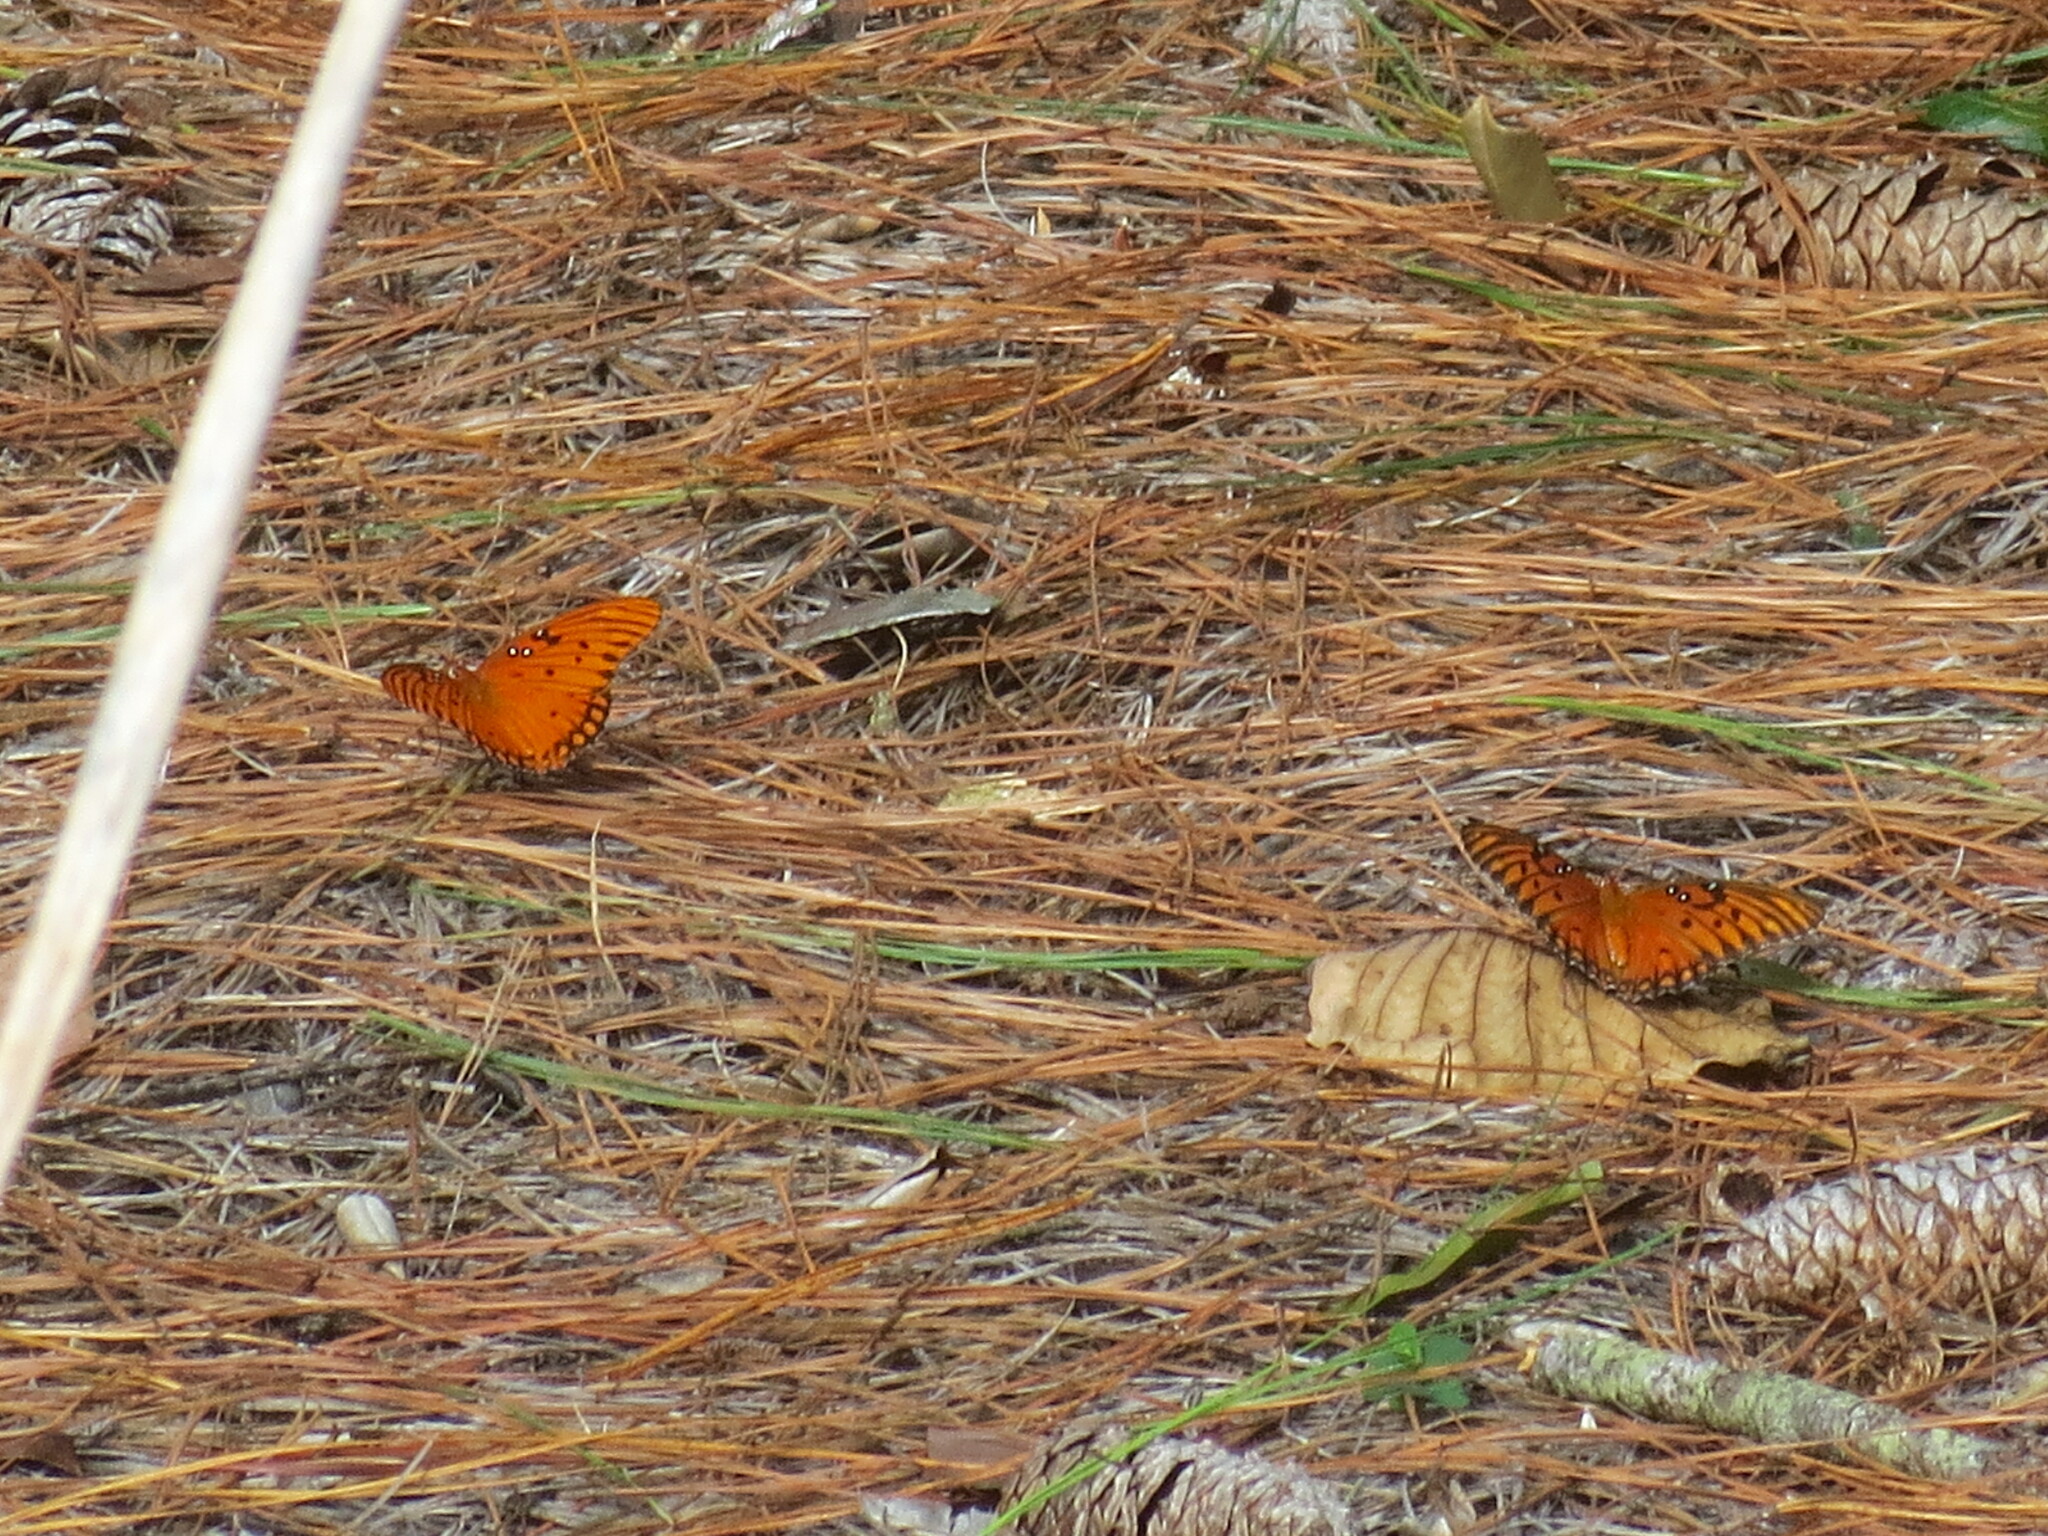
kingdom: Animalia
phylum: Arthropoda
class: Insecta
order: Lepidoptera
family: Nymphalidae
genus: Dione
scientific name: Dione vanillae
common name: Gulf fritillary
